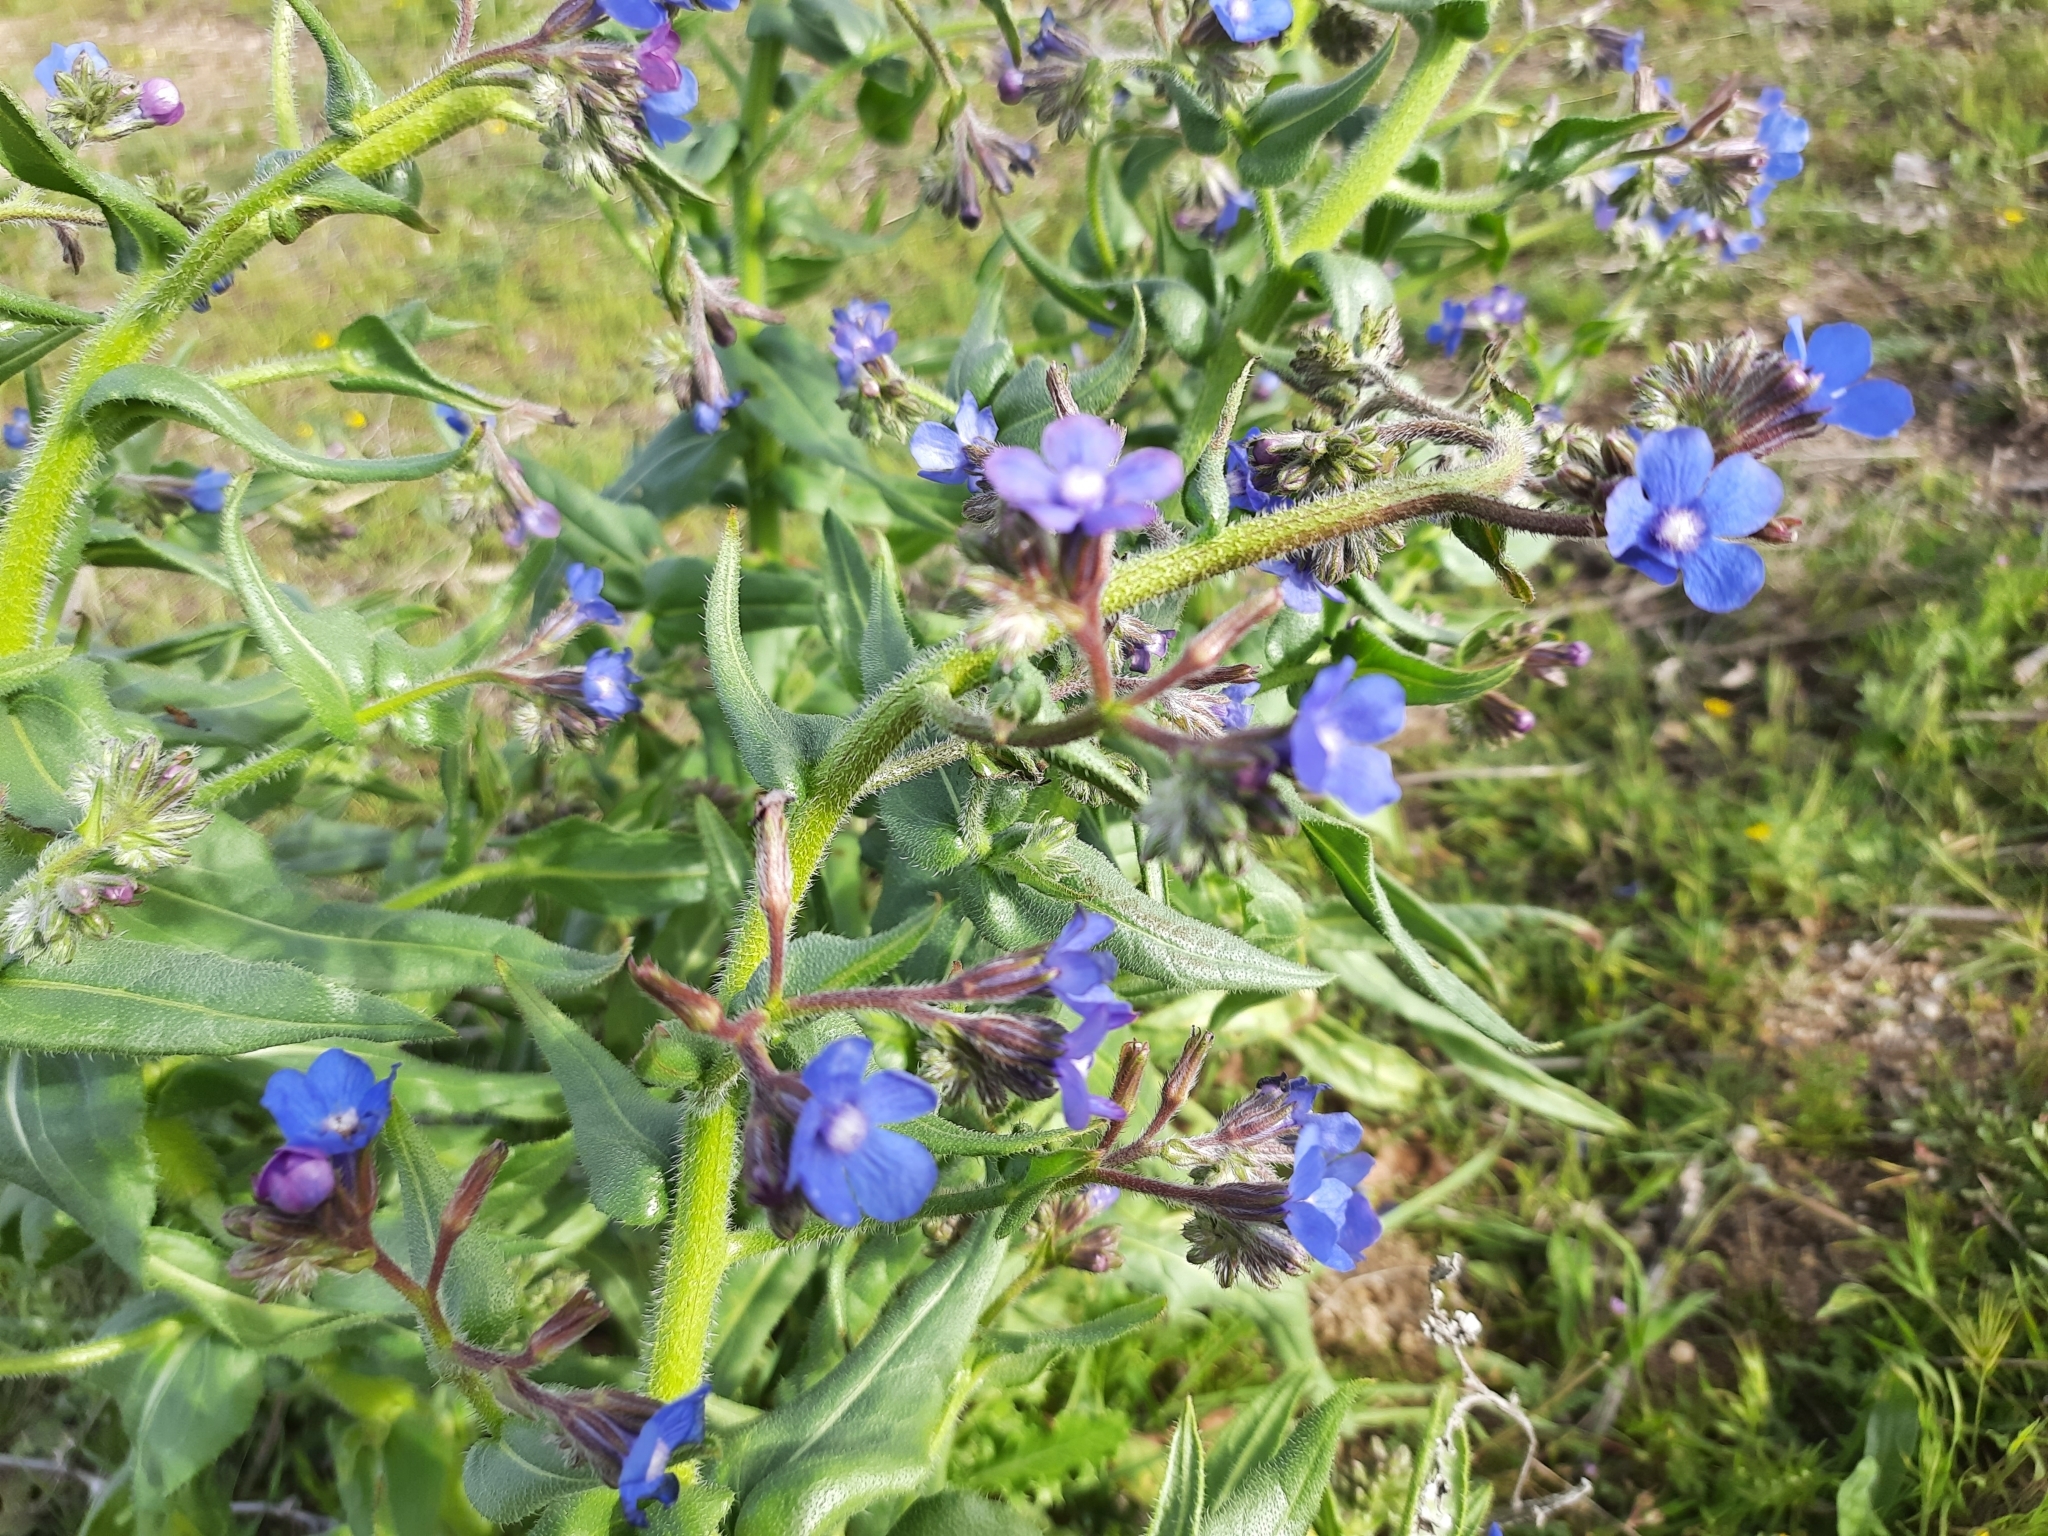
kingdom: Plantae
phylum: Tracheophyta
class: Magnoliopsida
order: Boraginales
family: Boraginaceae
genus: Anchusa
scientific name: Anchusa azurea
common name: Garden anchusa
